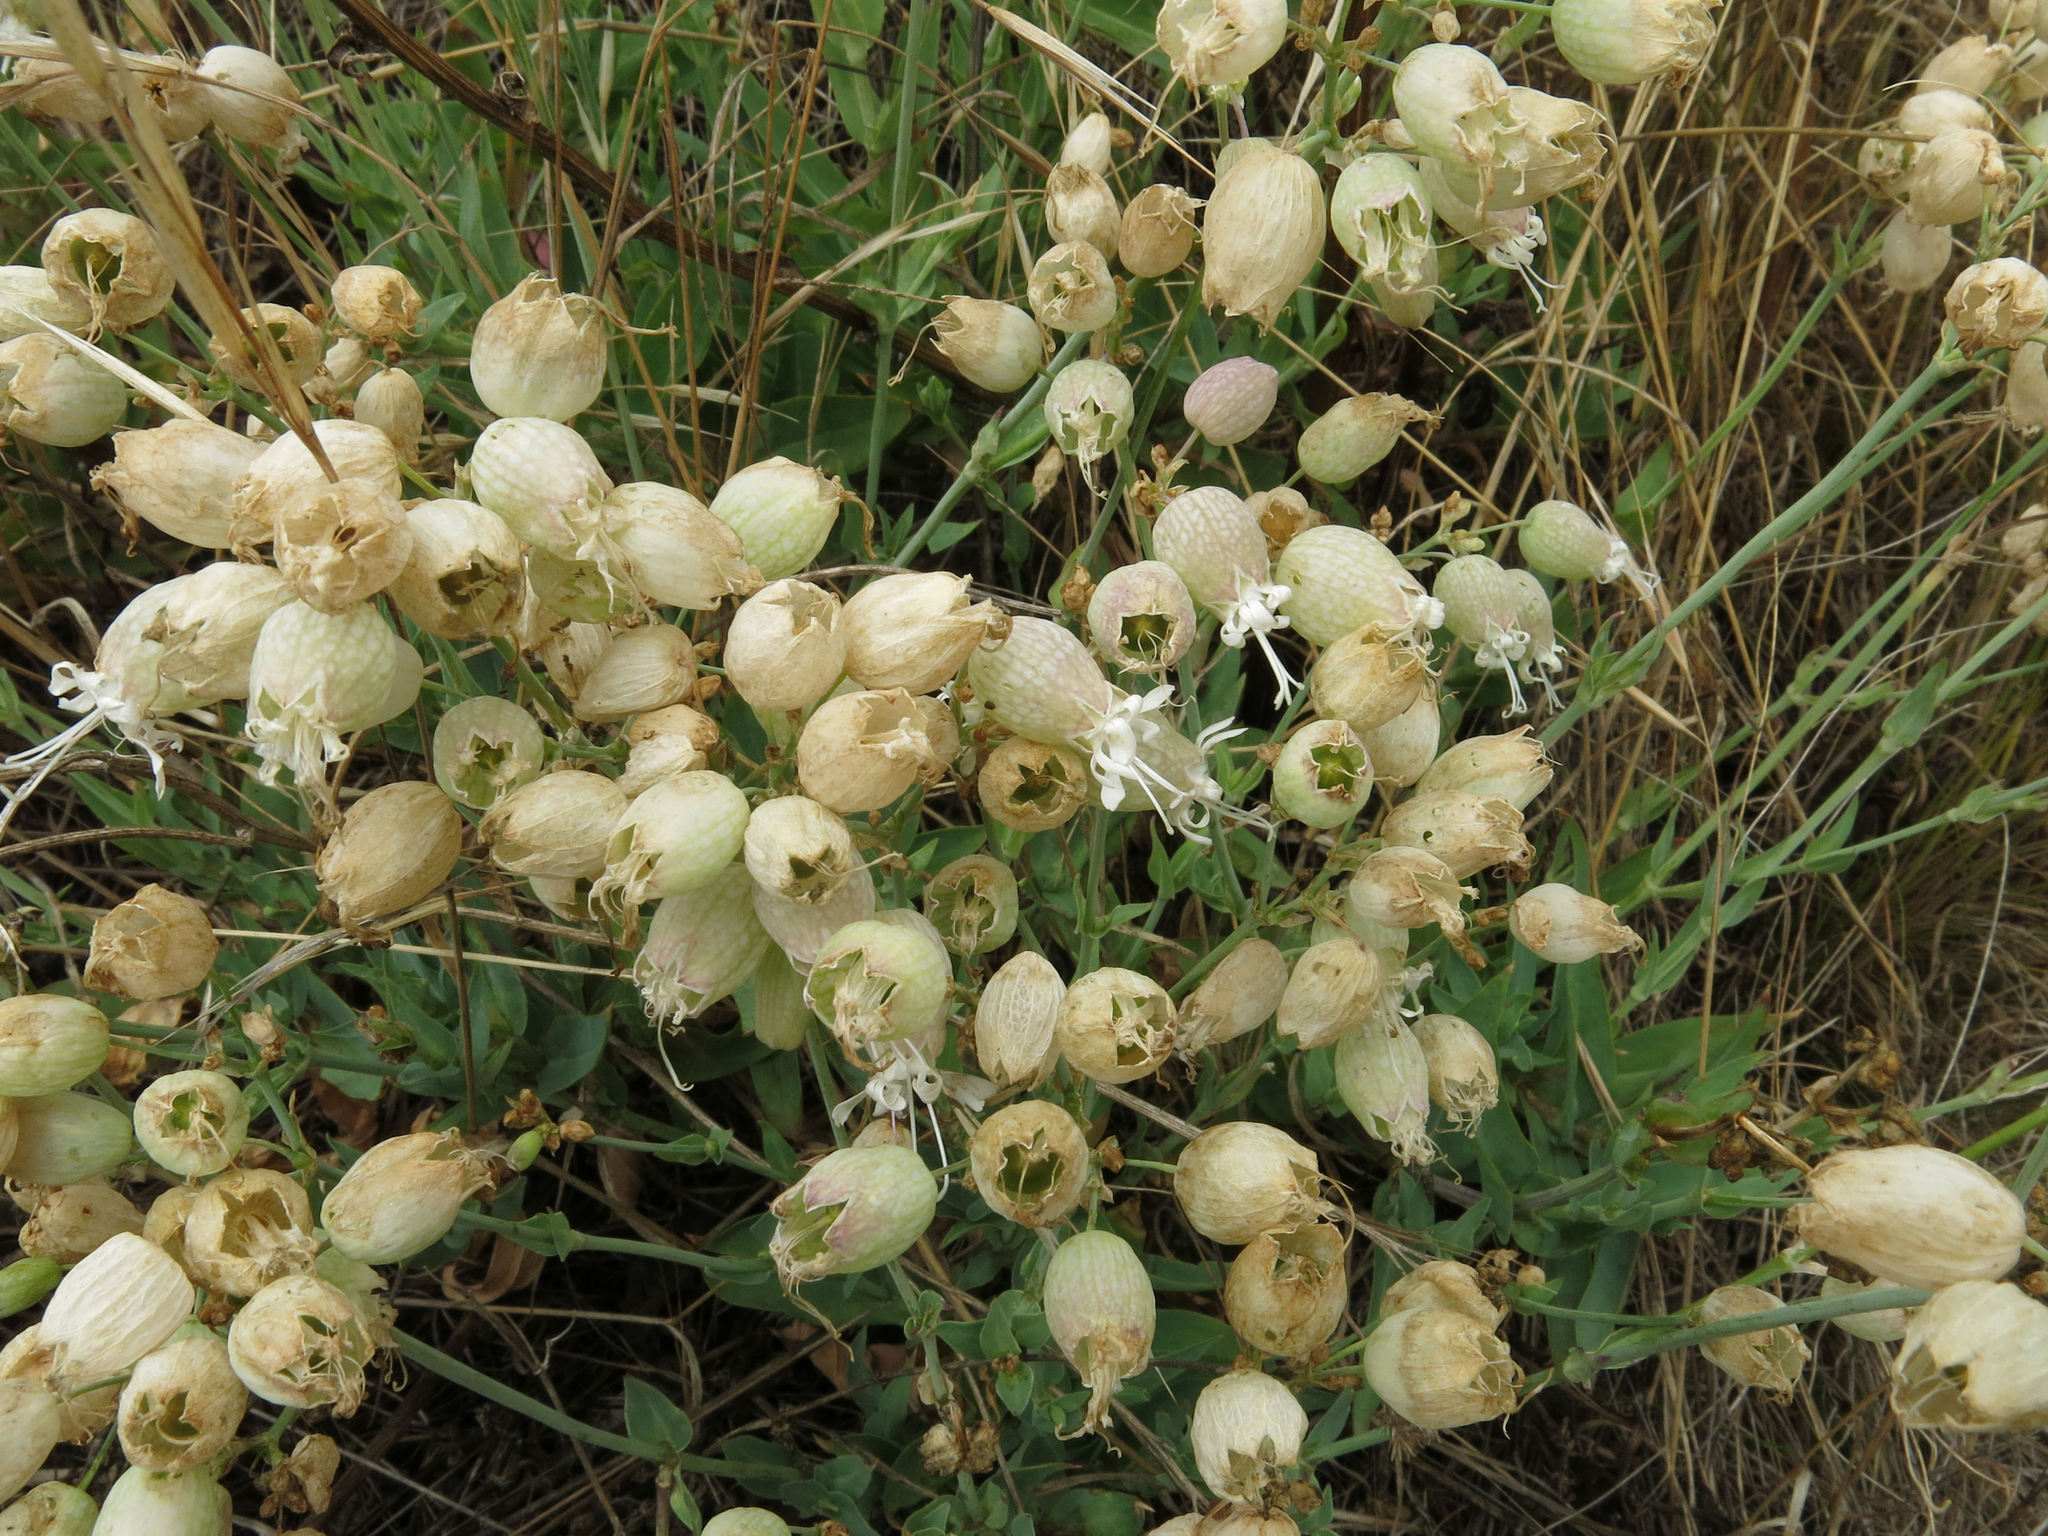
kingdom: Plantae
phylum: Tracheophyta
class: Magnoliopsida
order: Caryophyllales
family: Caryophyllaceae
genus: Silene
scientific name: Silene vulgaris
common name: Bladder campion
